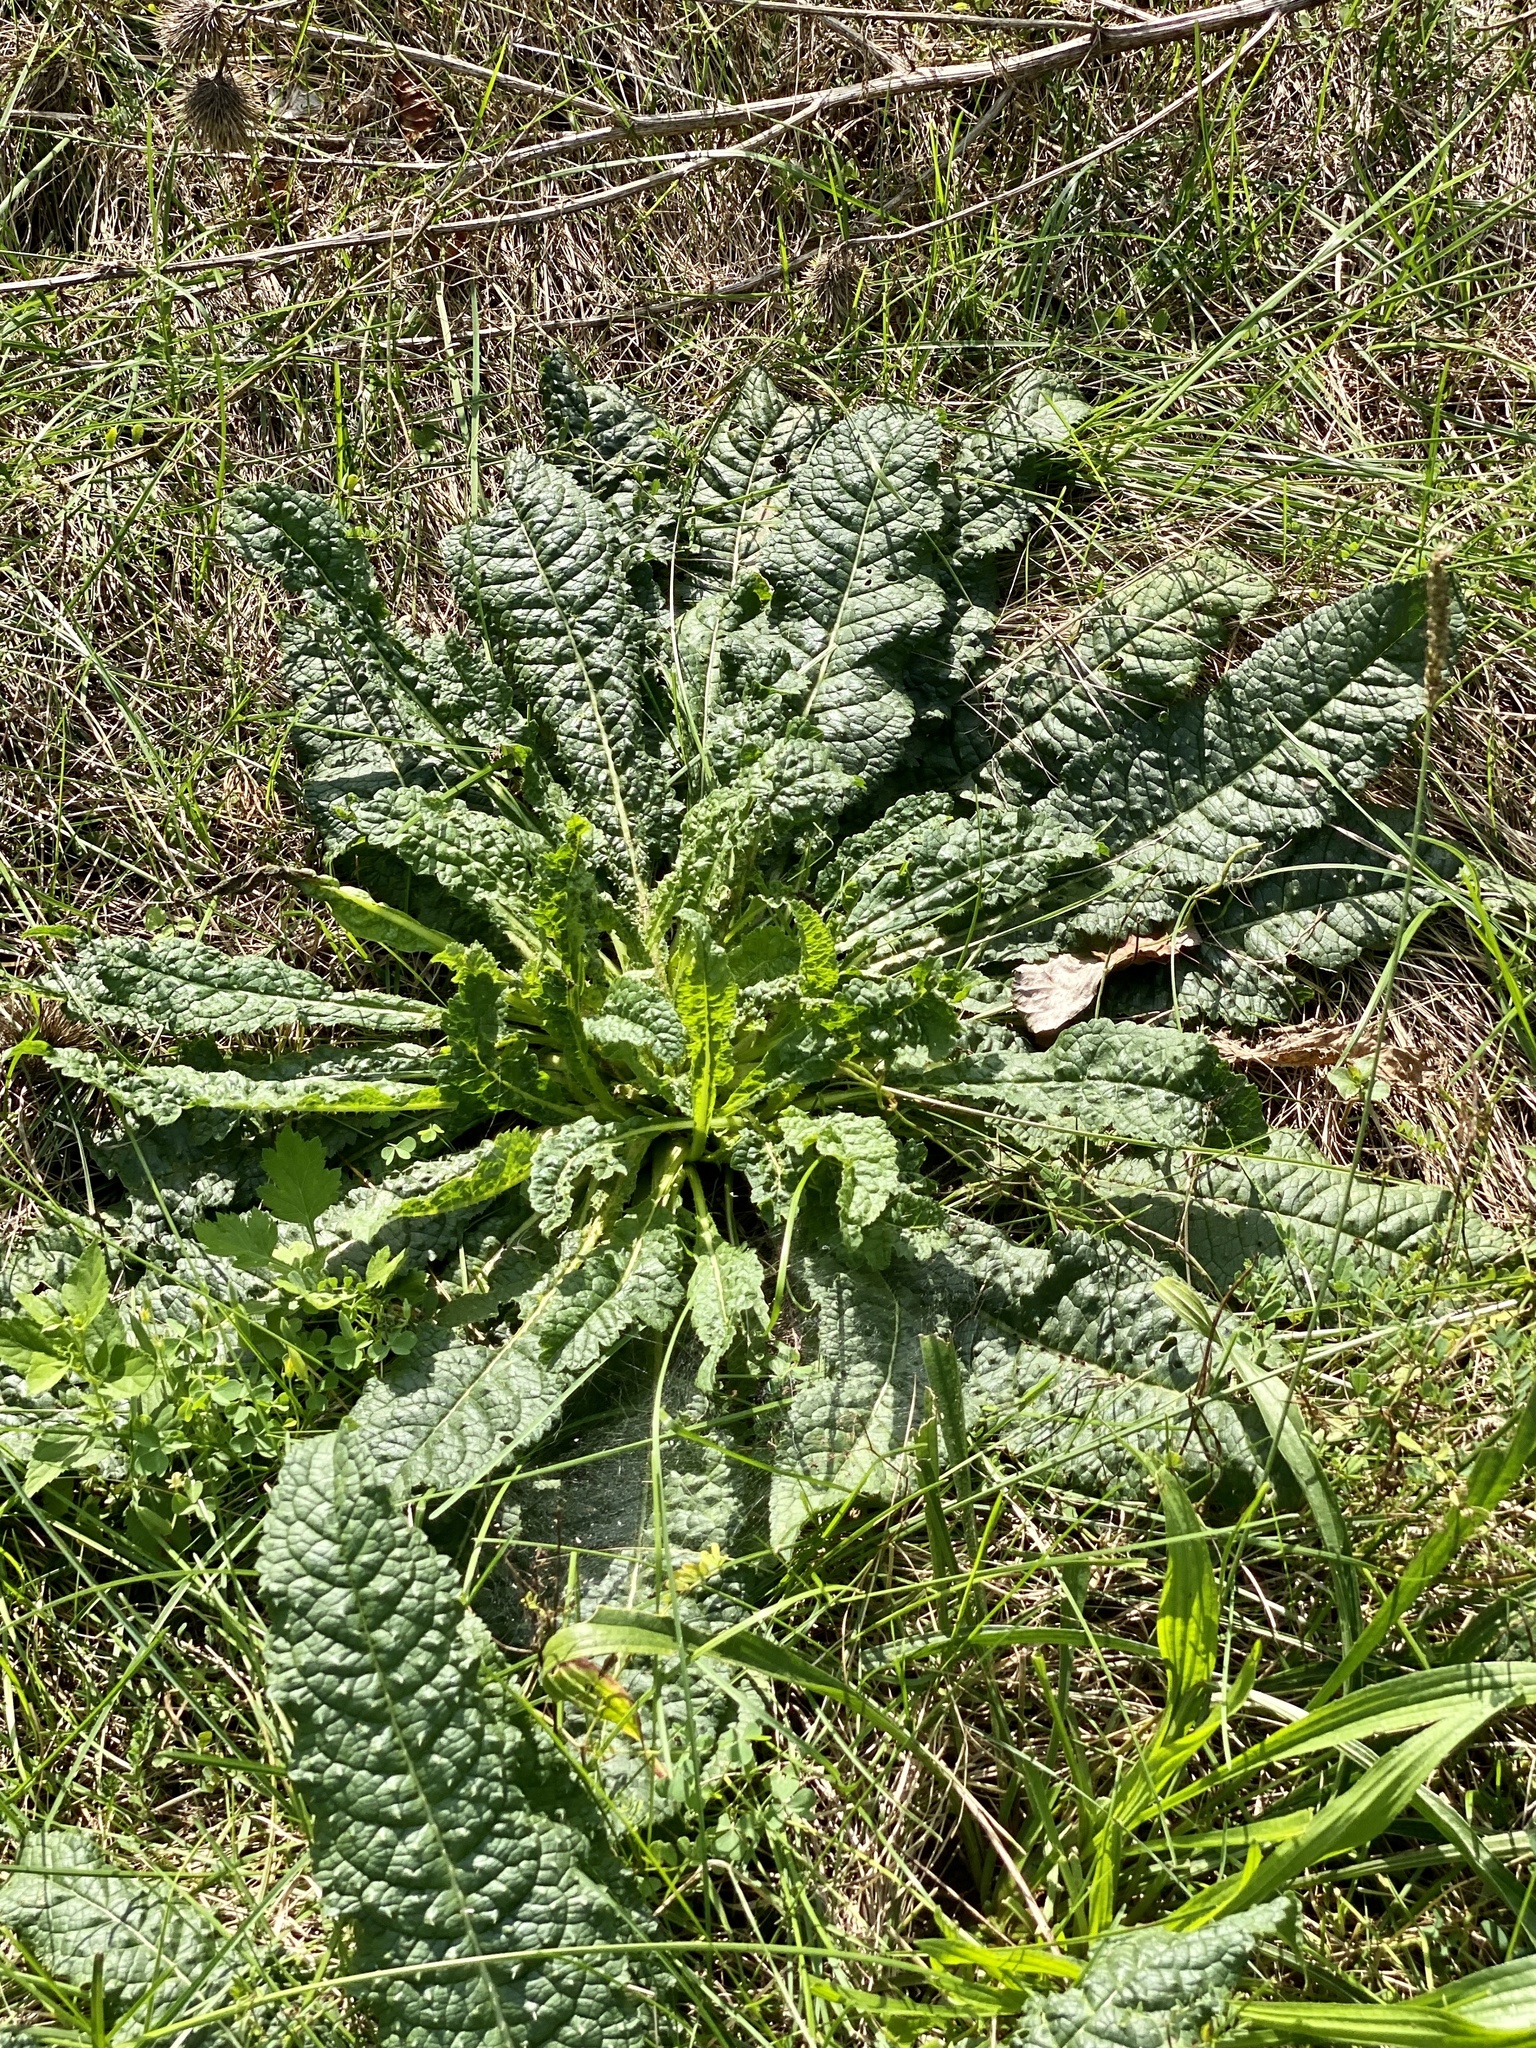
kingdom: Plantae
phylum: Tracheophyta
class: Magnoliopsida
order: Dipsacales
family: Caprifoliaceae
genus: Dipsacus
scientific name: Dipsacus fullonum
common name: Teasel
